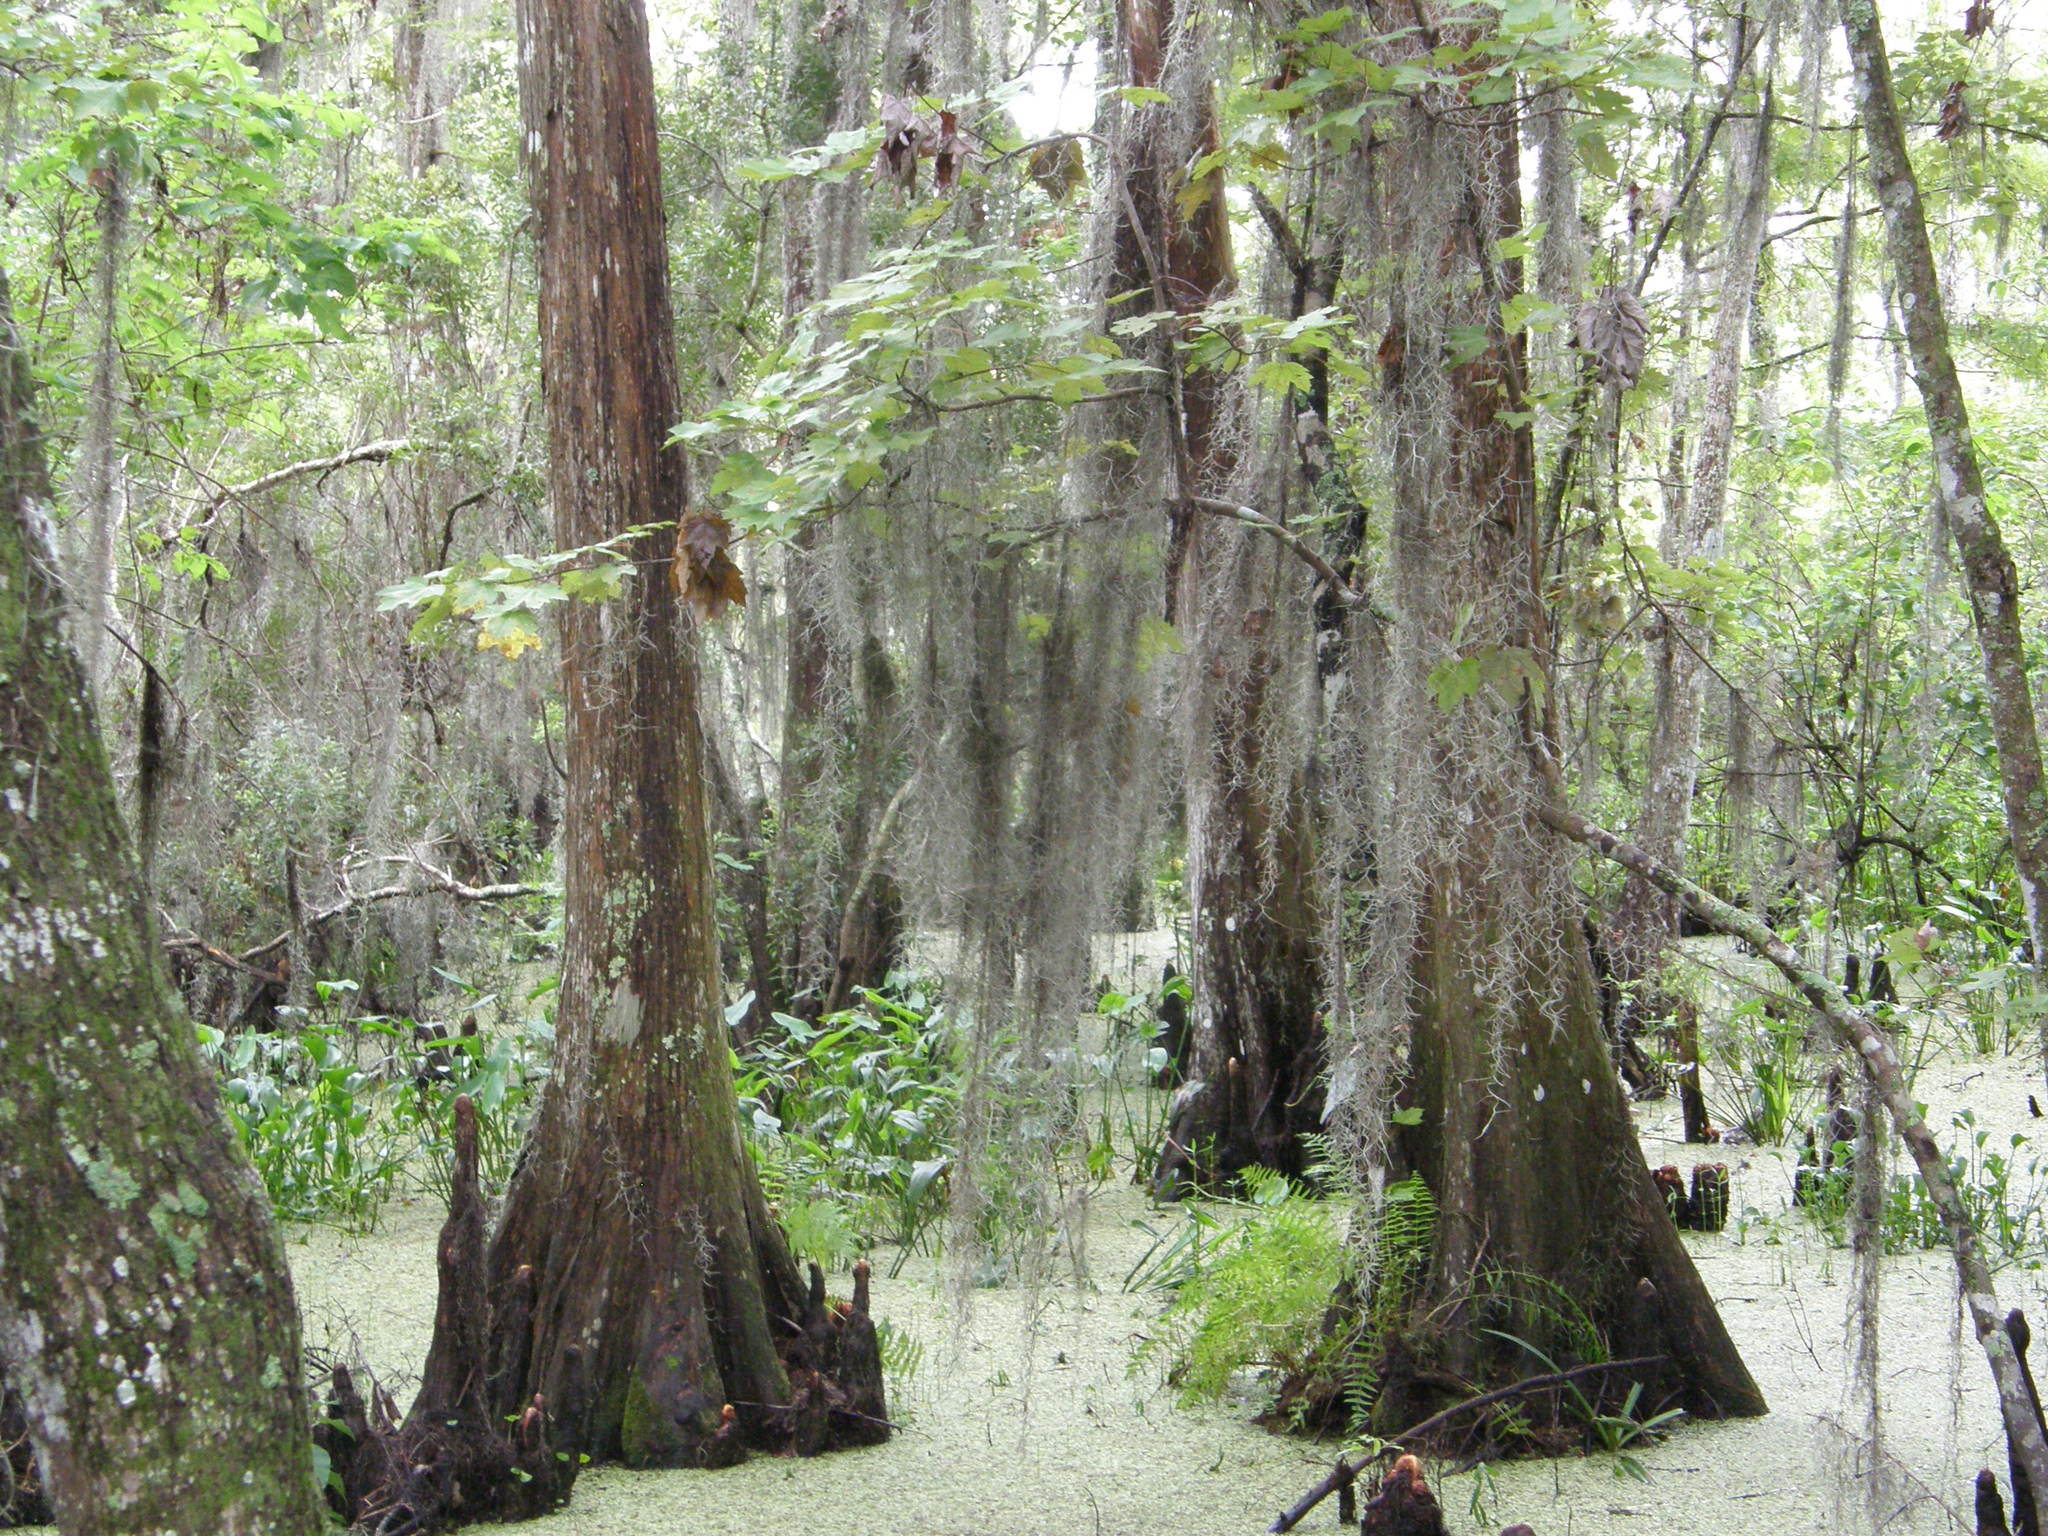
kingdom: Plantae
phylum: Tracheophyta
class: Pinopsida
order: Pinales
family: Cupressaceae
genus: Taxodium
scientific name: Taxodium distichum
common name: Bald cypress
